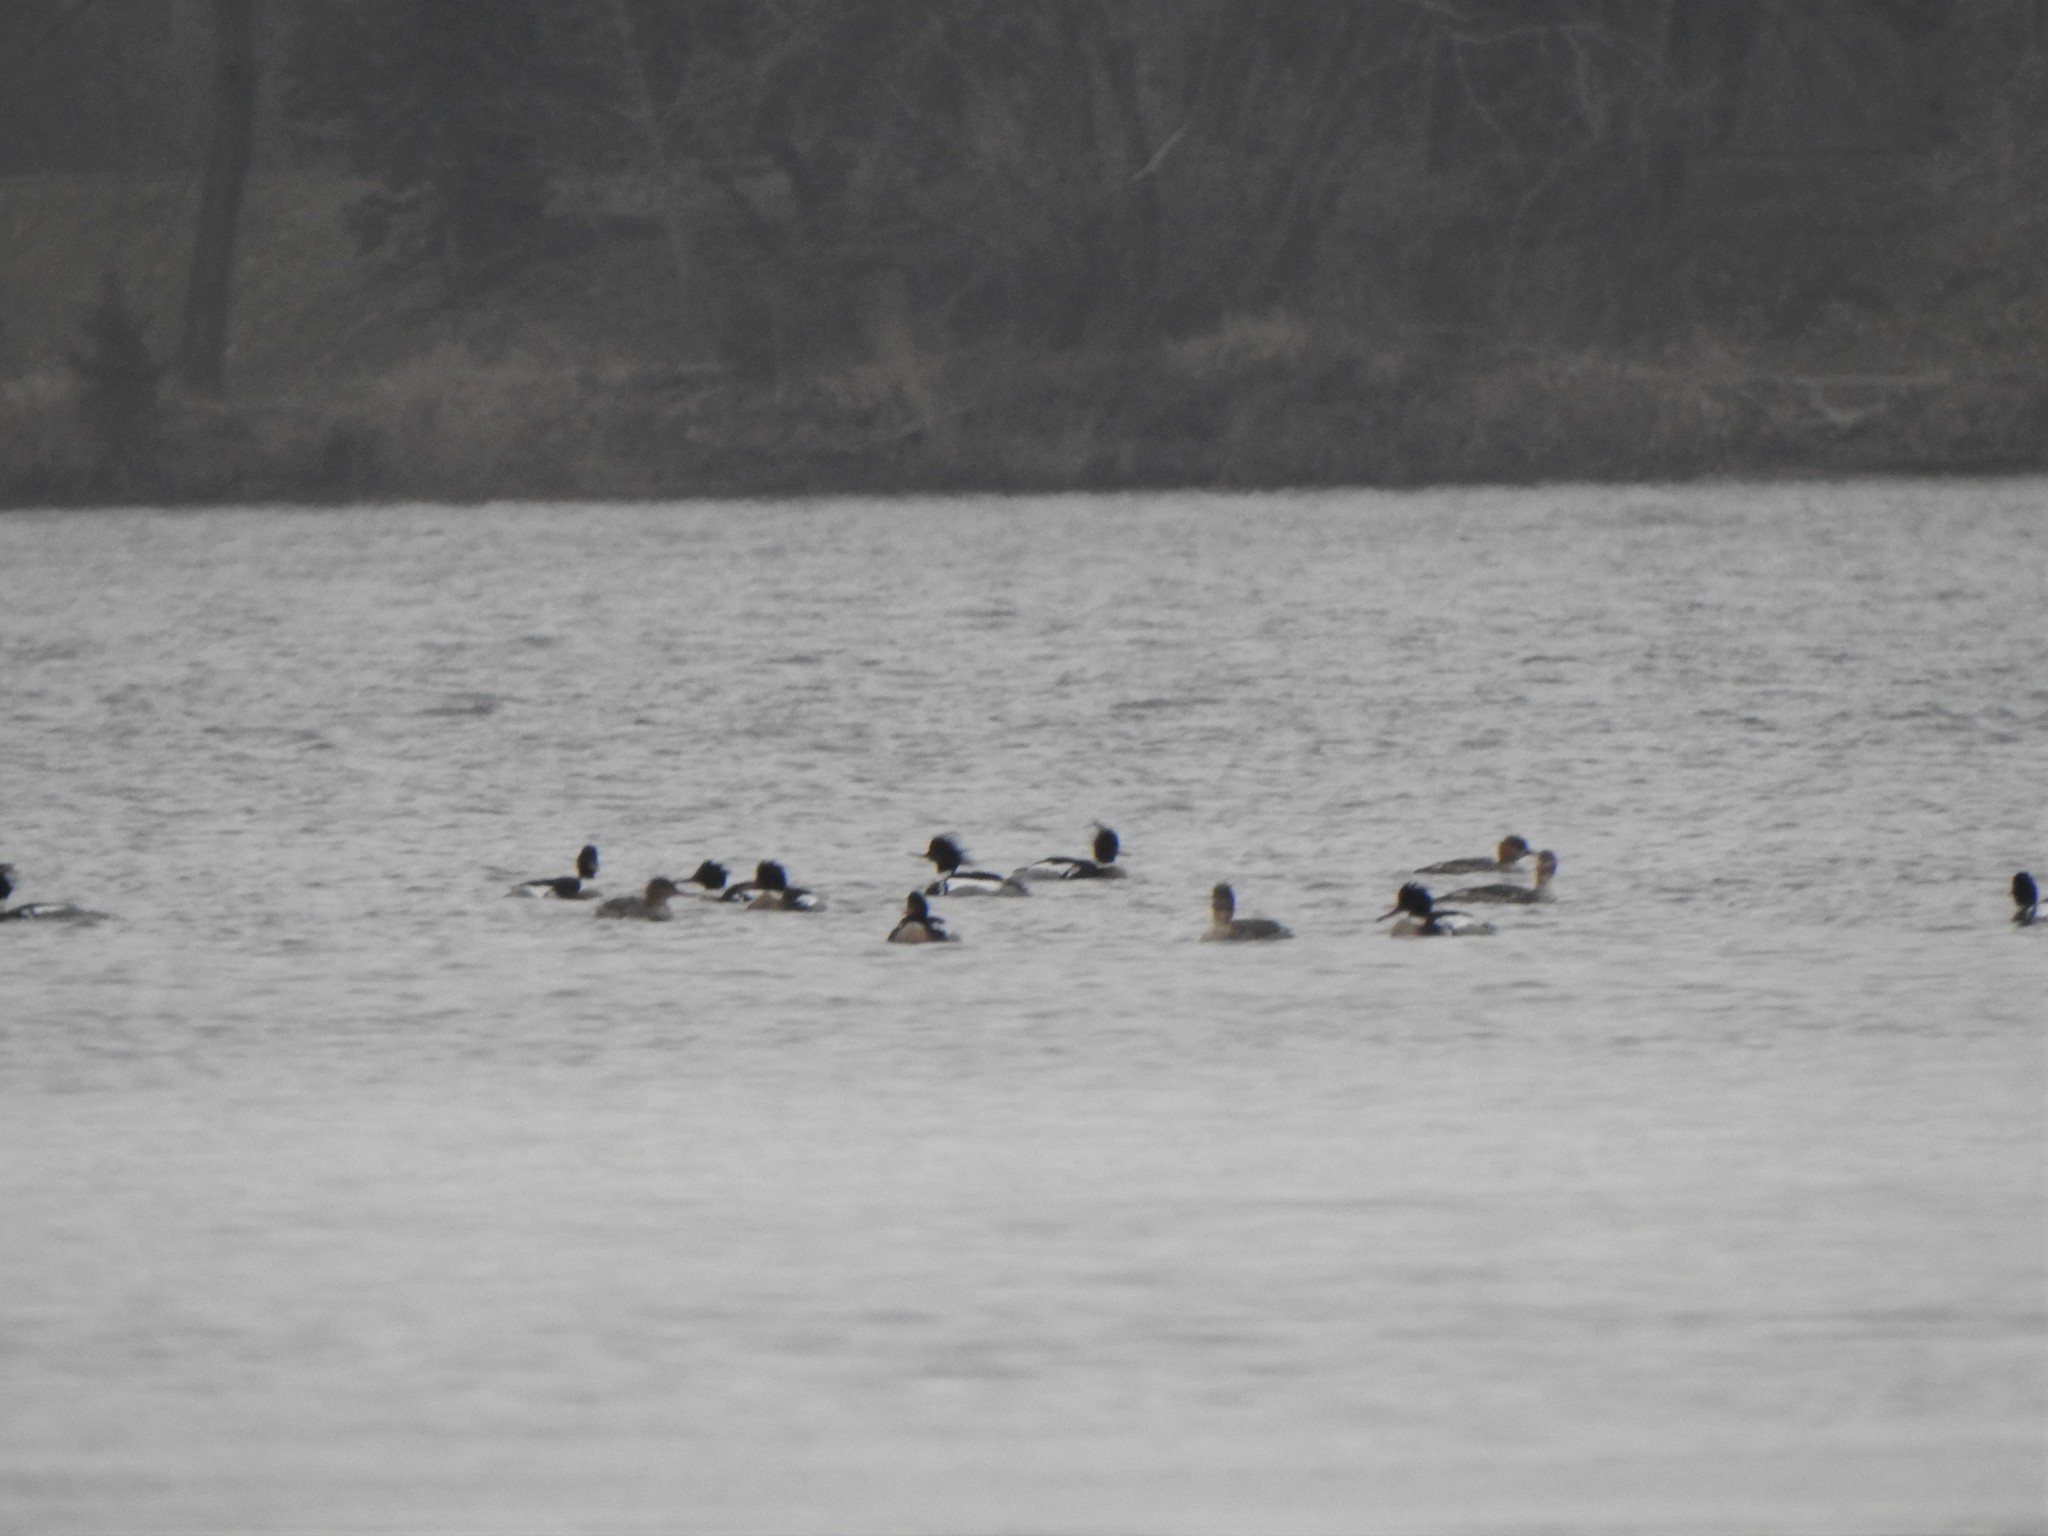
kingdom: Animalia
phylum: Chordata
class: Aves
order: Anseriformes
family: Anatidae
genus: Mergus
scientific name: Mergus serrator
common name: Red-breasted merganser
